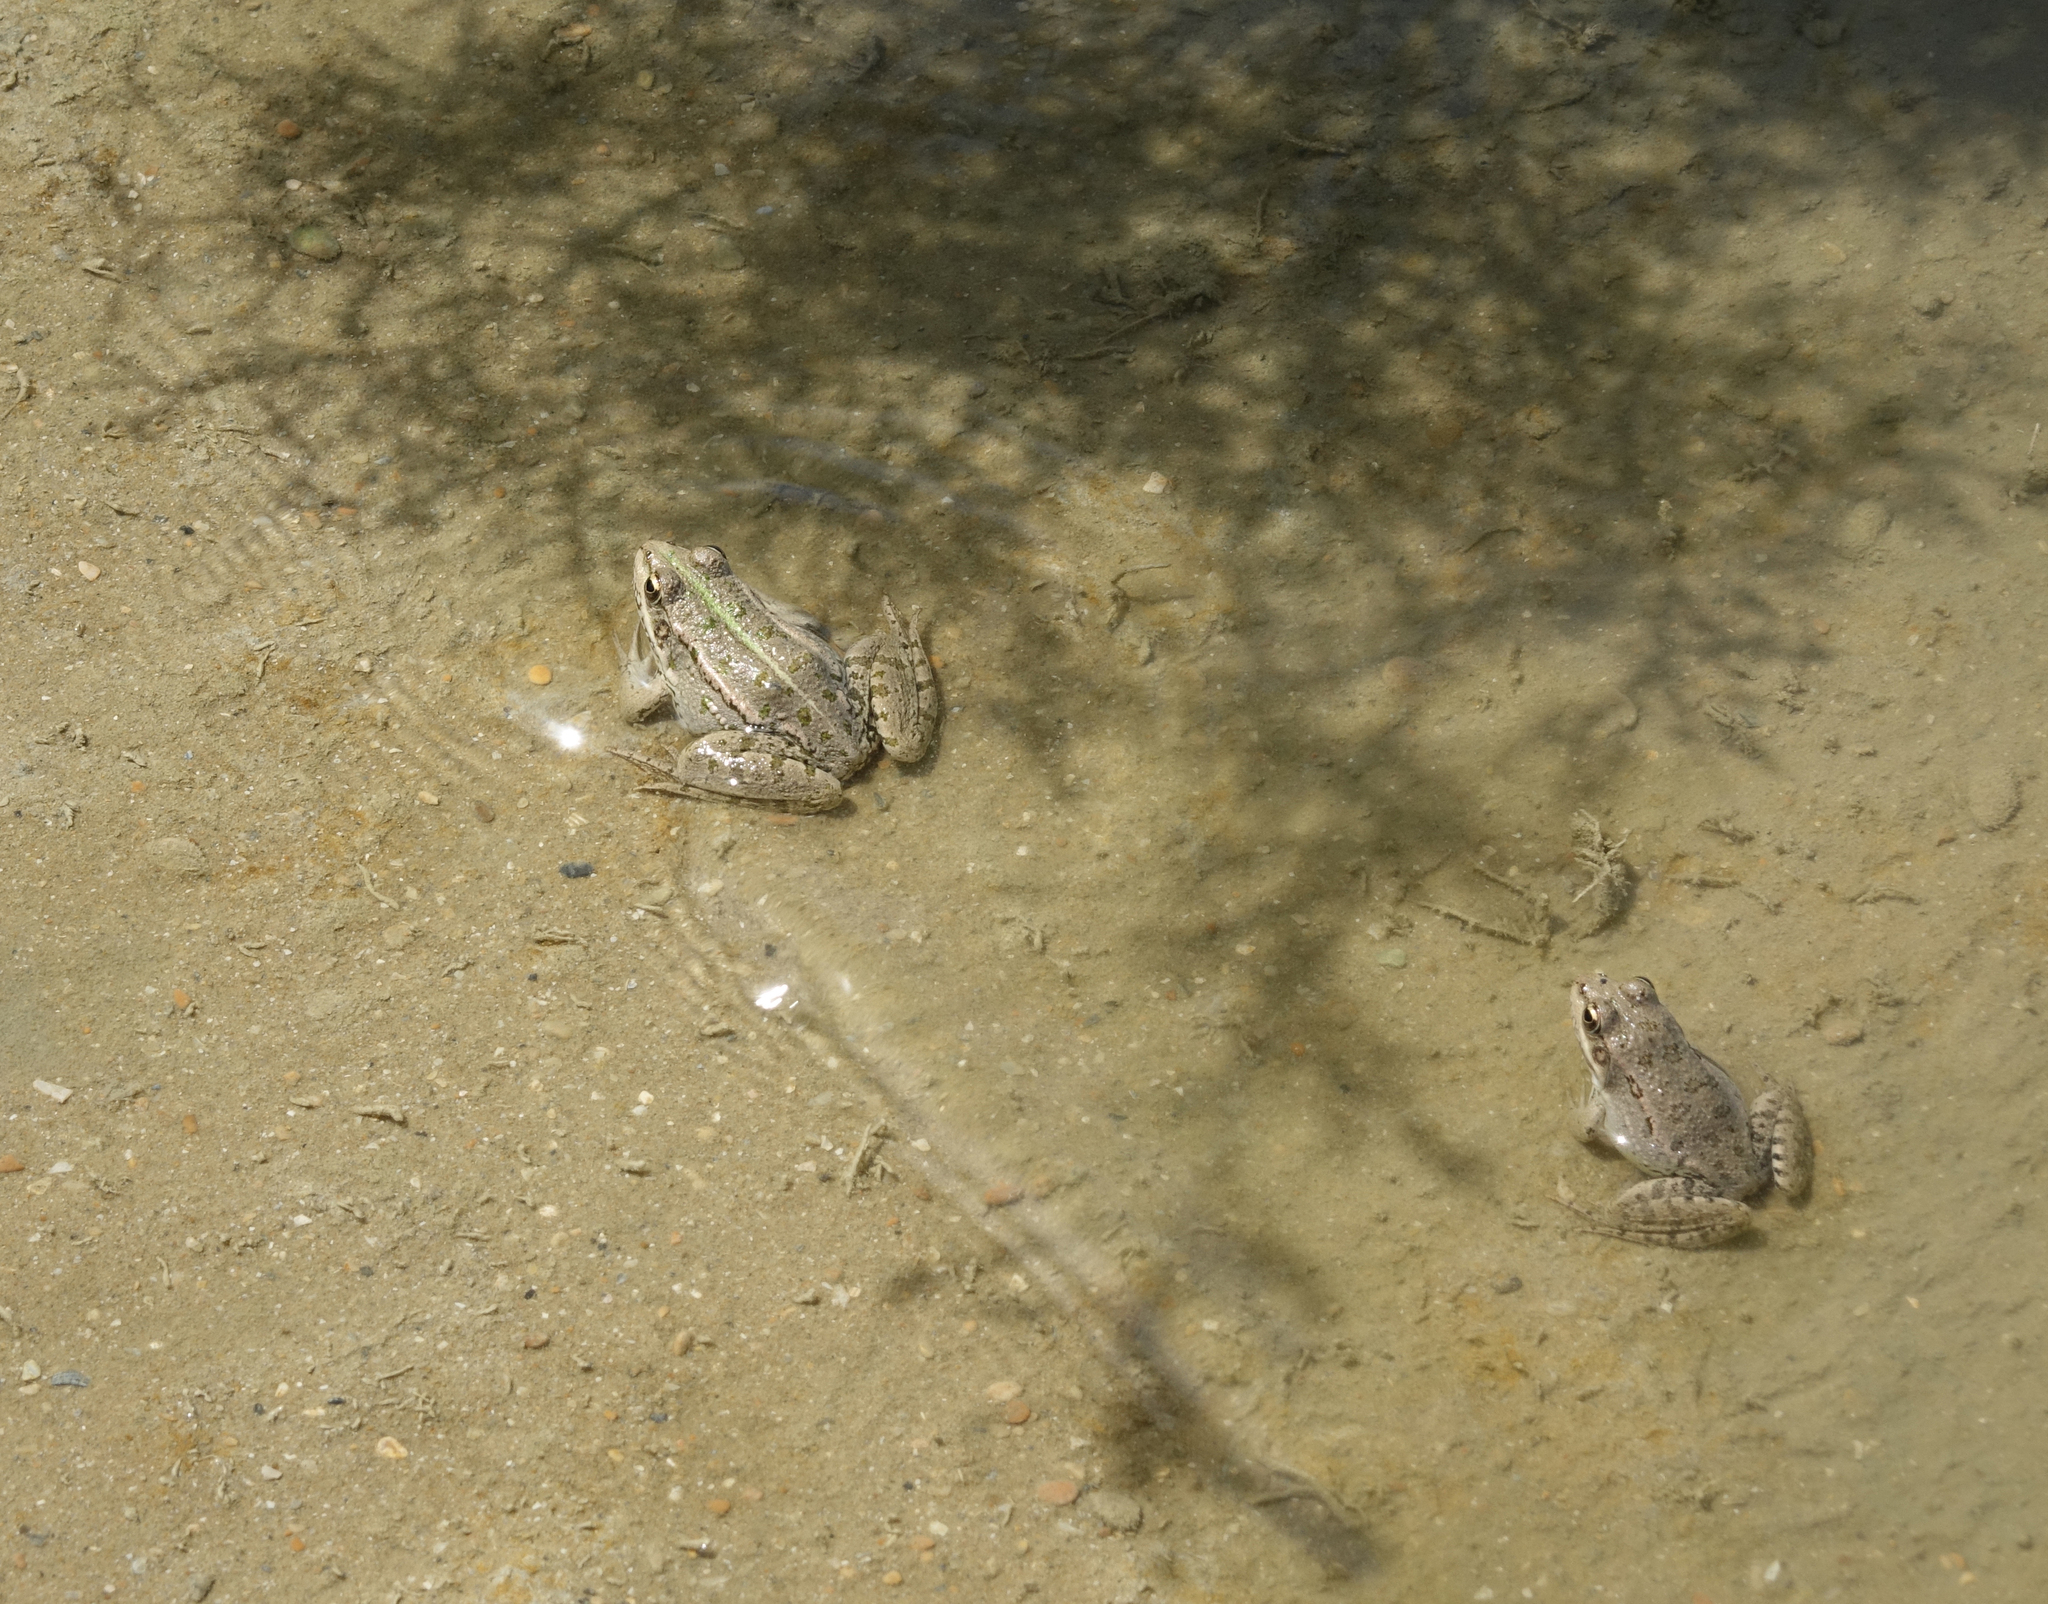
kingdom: Animalia
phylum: Chordata
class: Amphibia
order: Anura
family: Ranidae
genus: Pelophylax
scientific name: Pelophylax ridibundus
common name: Marsh frog
